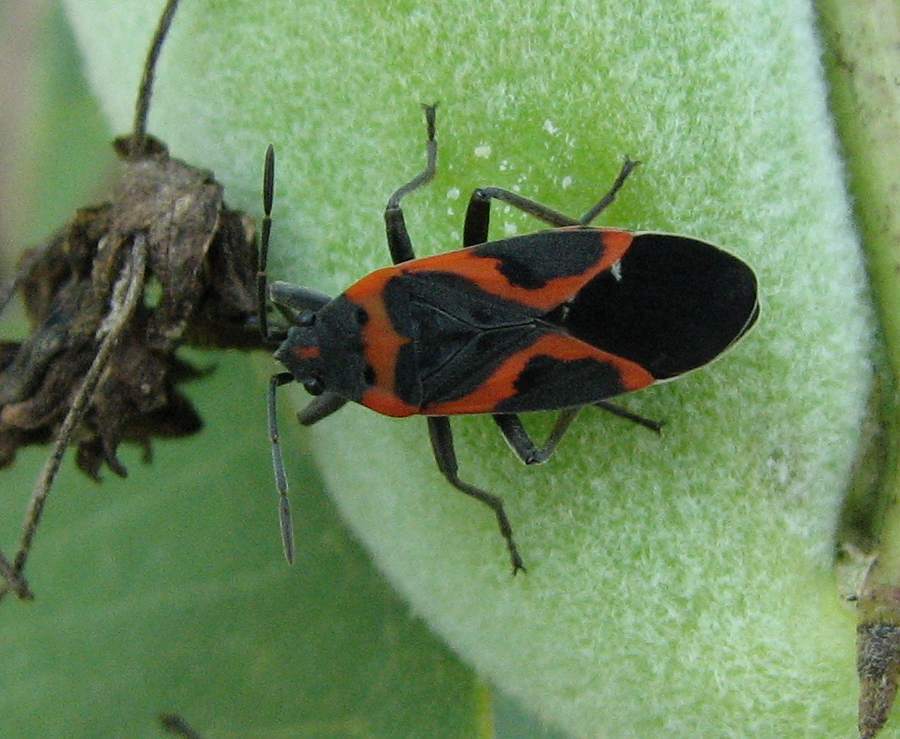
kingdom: Animalia
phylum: Arthropoda
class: Insecta
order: Hemiptera
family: Lygaeidae
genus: Lygaeus
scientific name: Lygaeus kalmii
